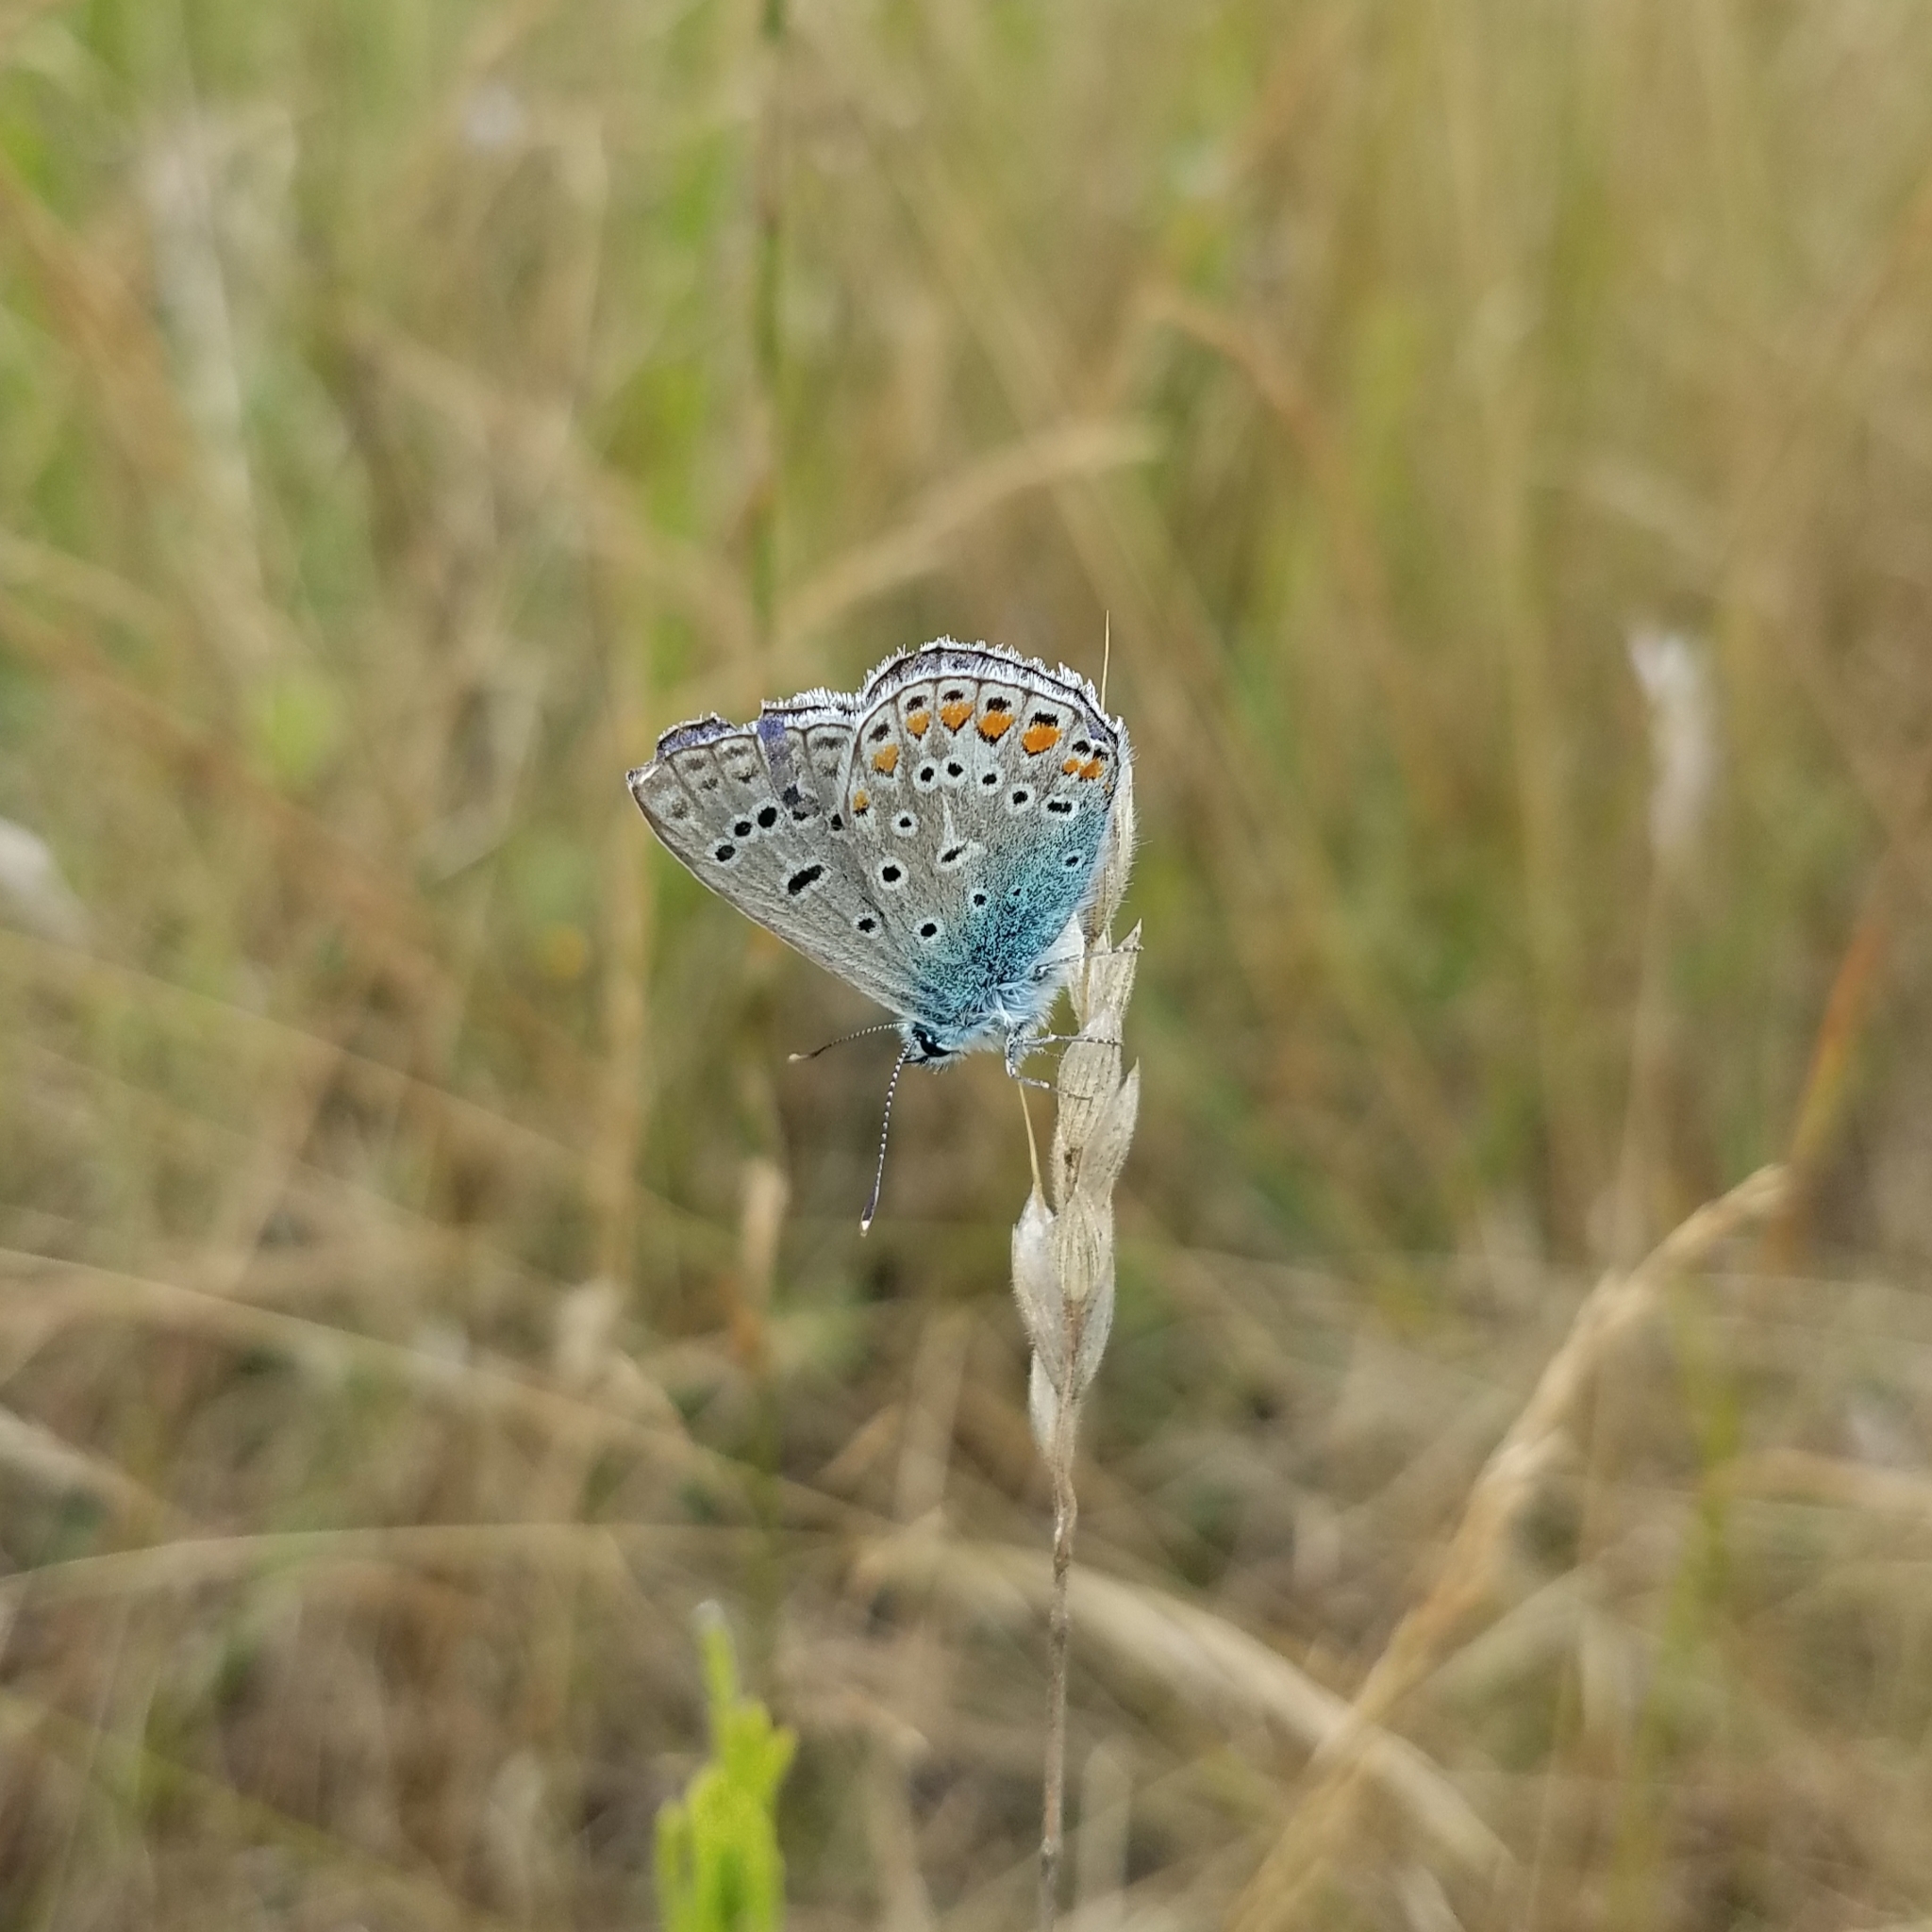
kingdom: Animalia
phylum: Arthropoda
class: Insecta
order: Lepidoptera
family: Lycaenidae
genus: Polyommatus
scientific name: Polyommatus icarus
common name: Common blue
